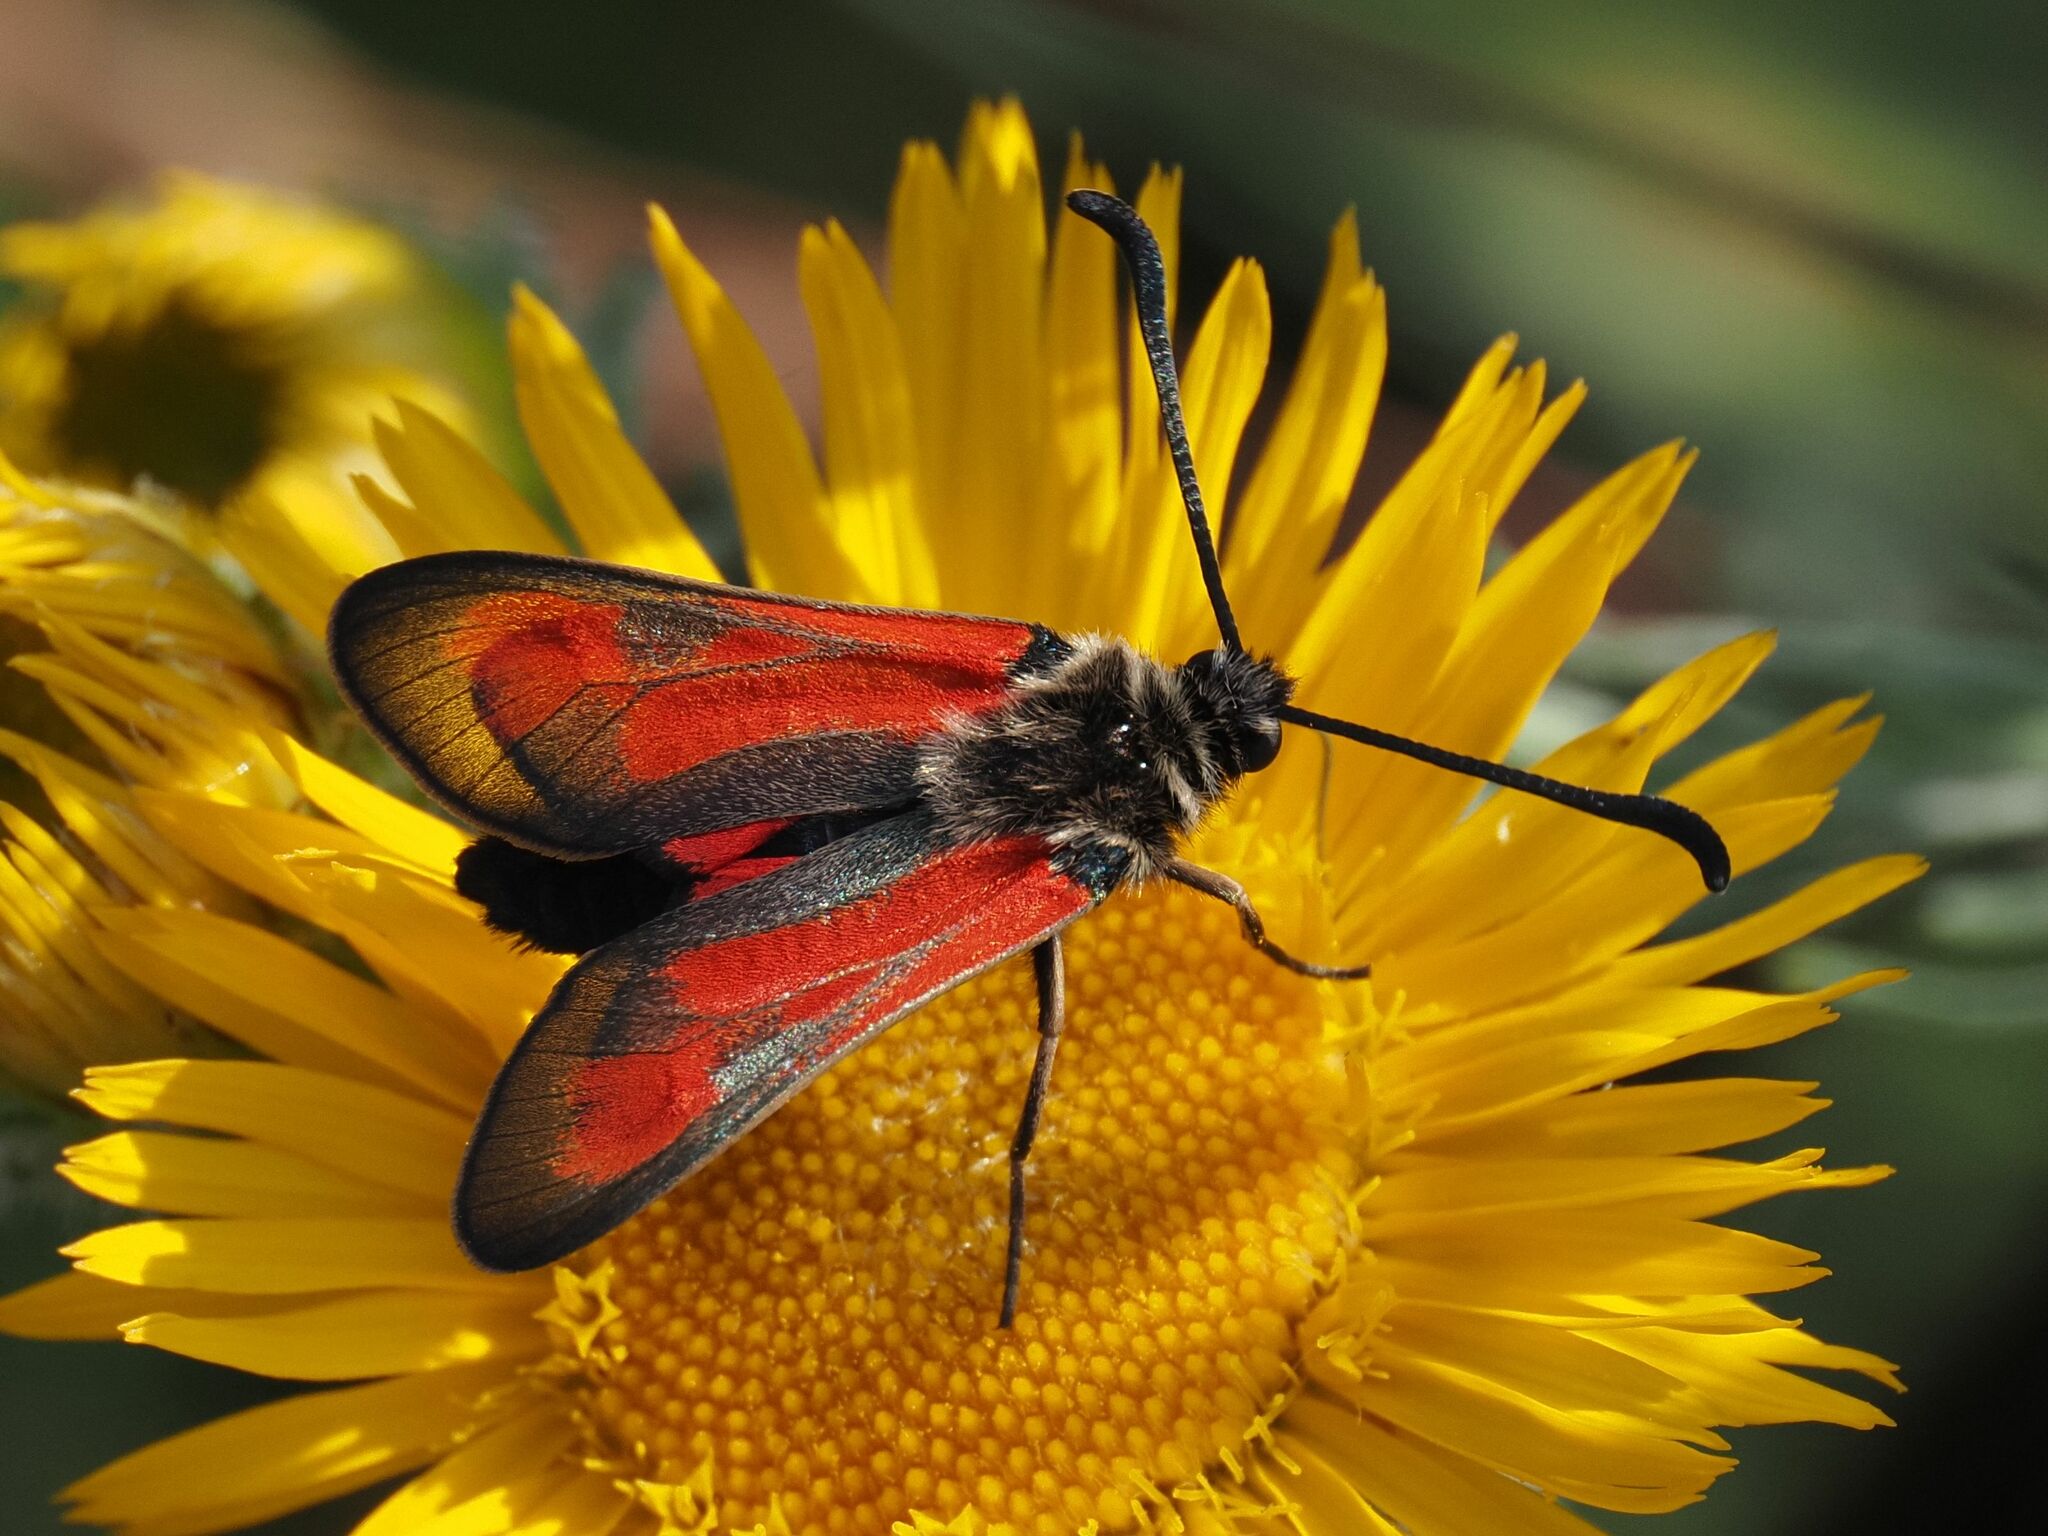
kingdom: Animalia
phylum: Arthropoda
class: Insecta
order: Lepidoptera
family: Zygaenidae
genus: Zygaena
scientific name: Zygaena punctum
